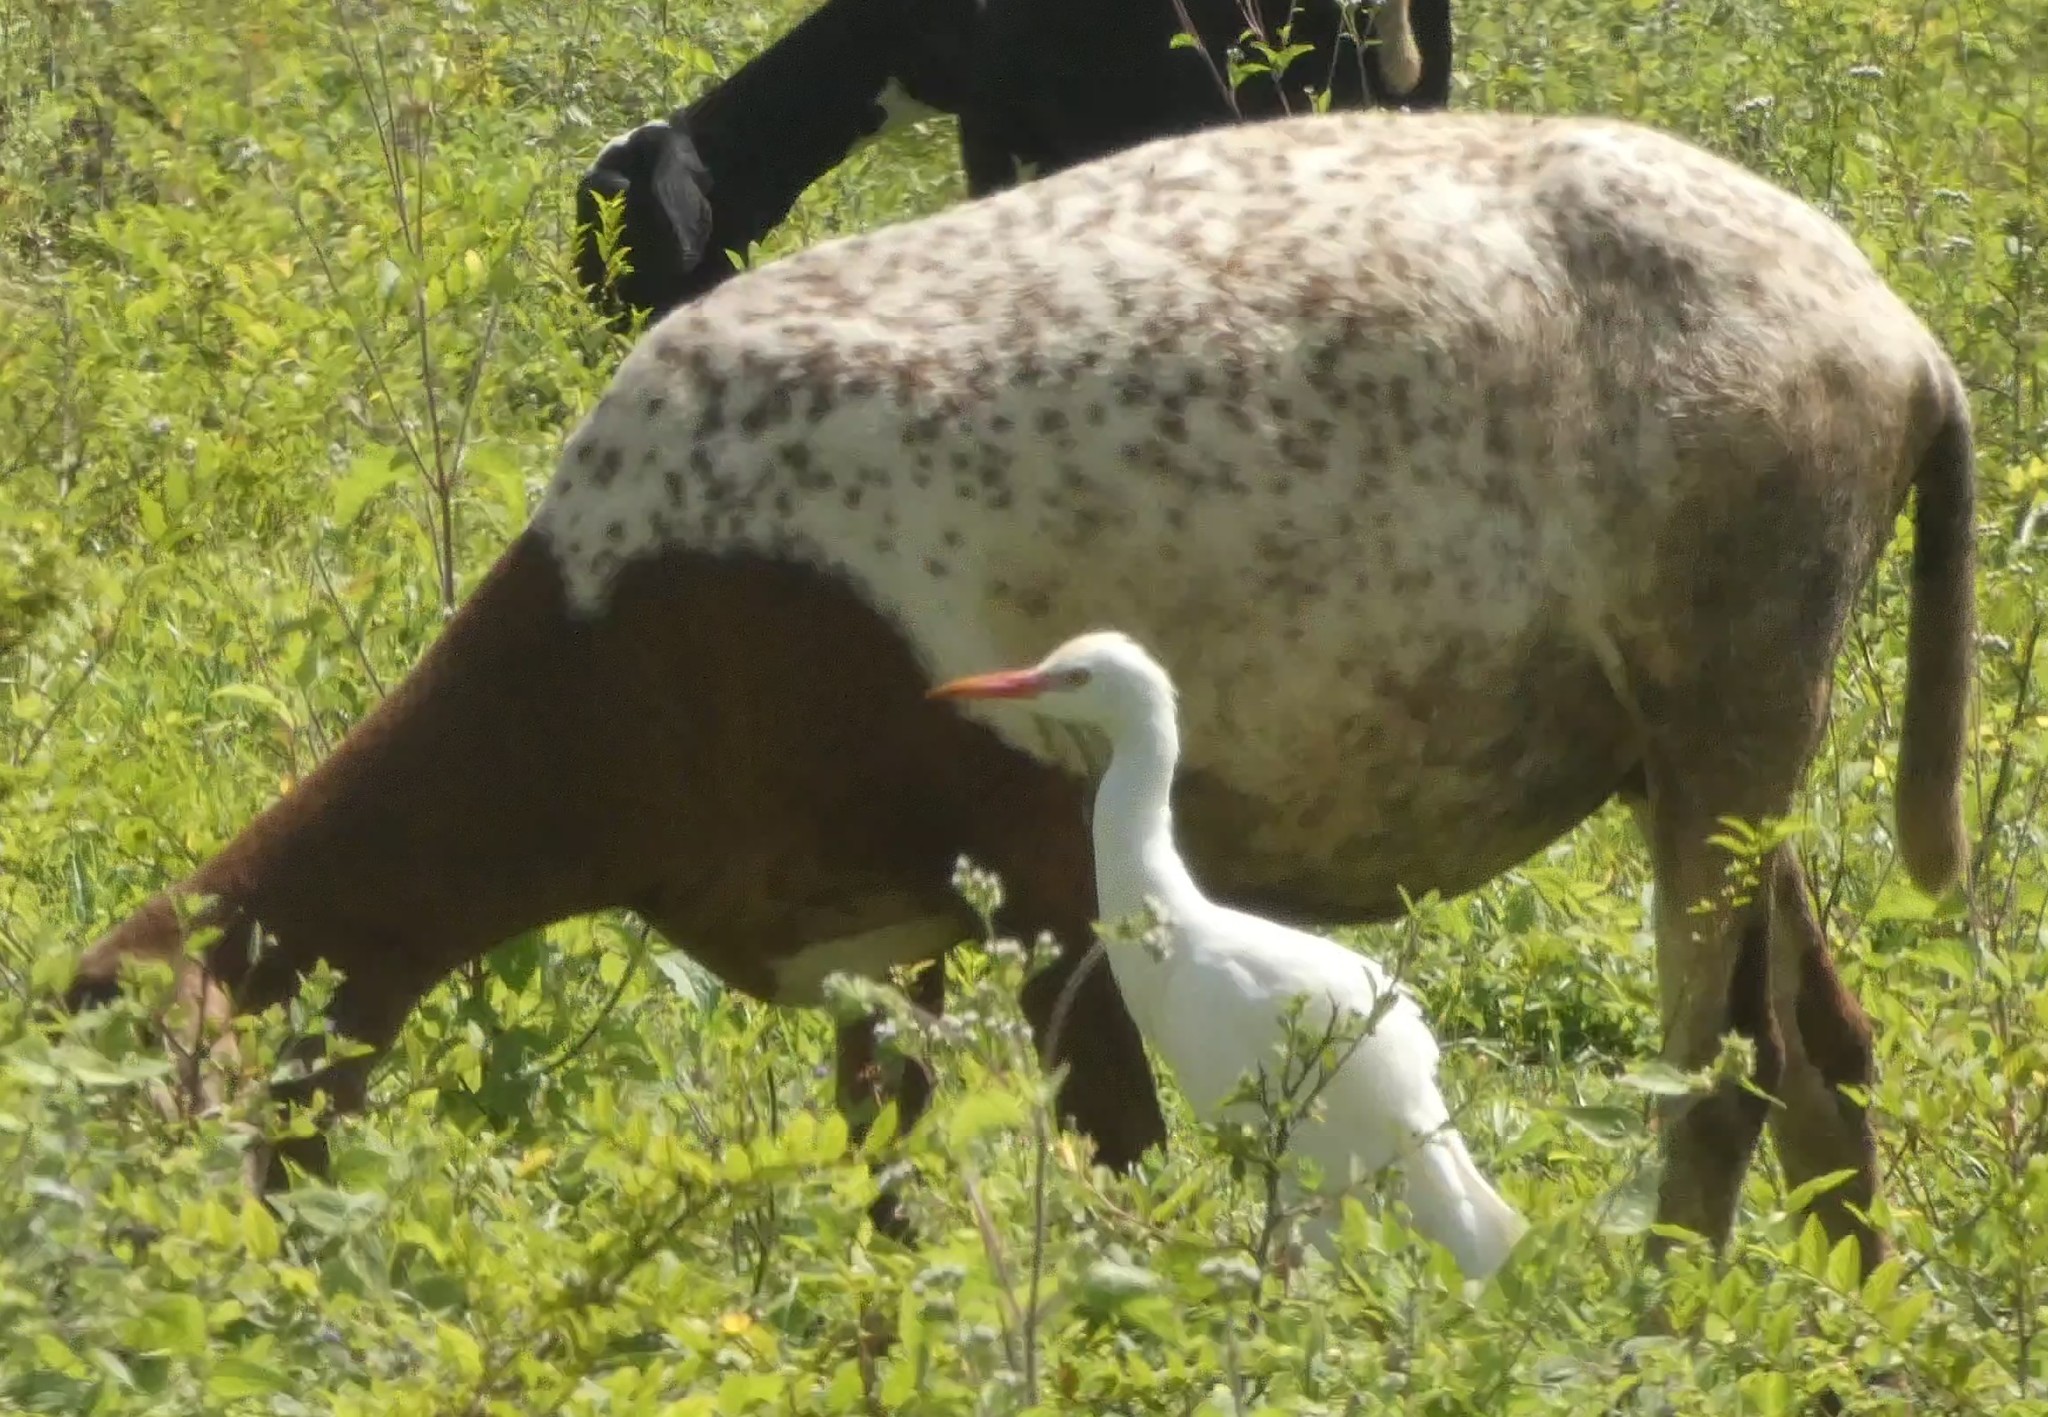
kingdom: Animalia
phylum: Chordata
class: Aves
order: Pelecaniformes
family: Ardeidae
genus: Bubulcus
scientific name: Bubulcus ibis
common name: Cattle egret
